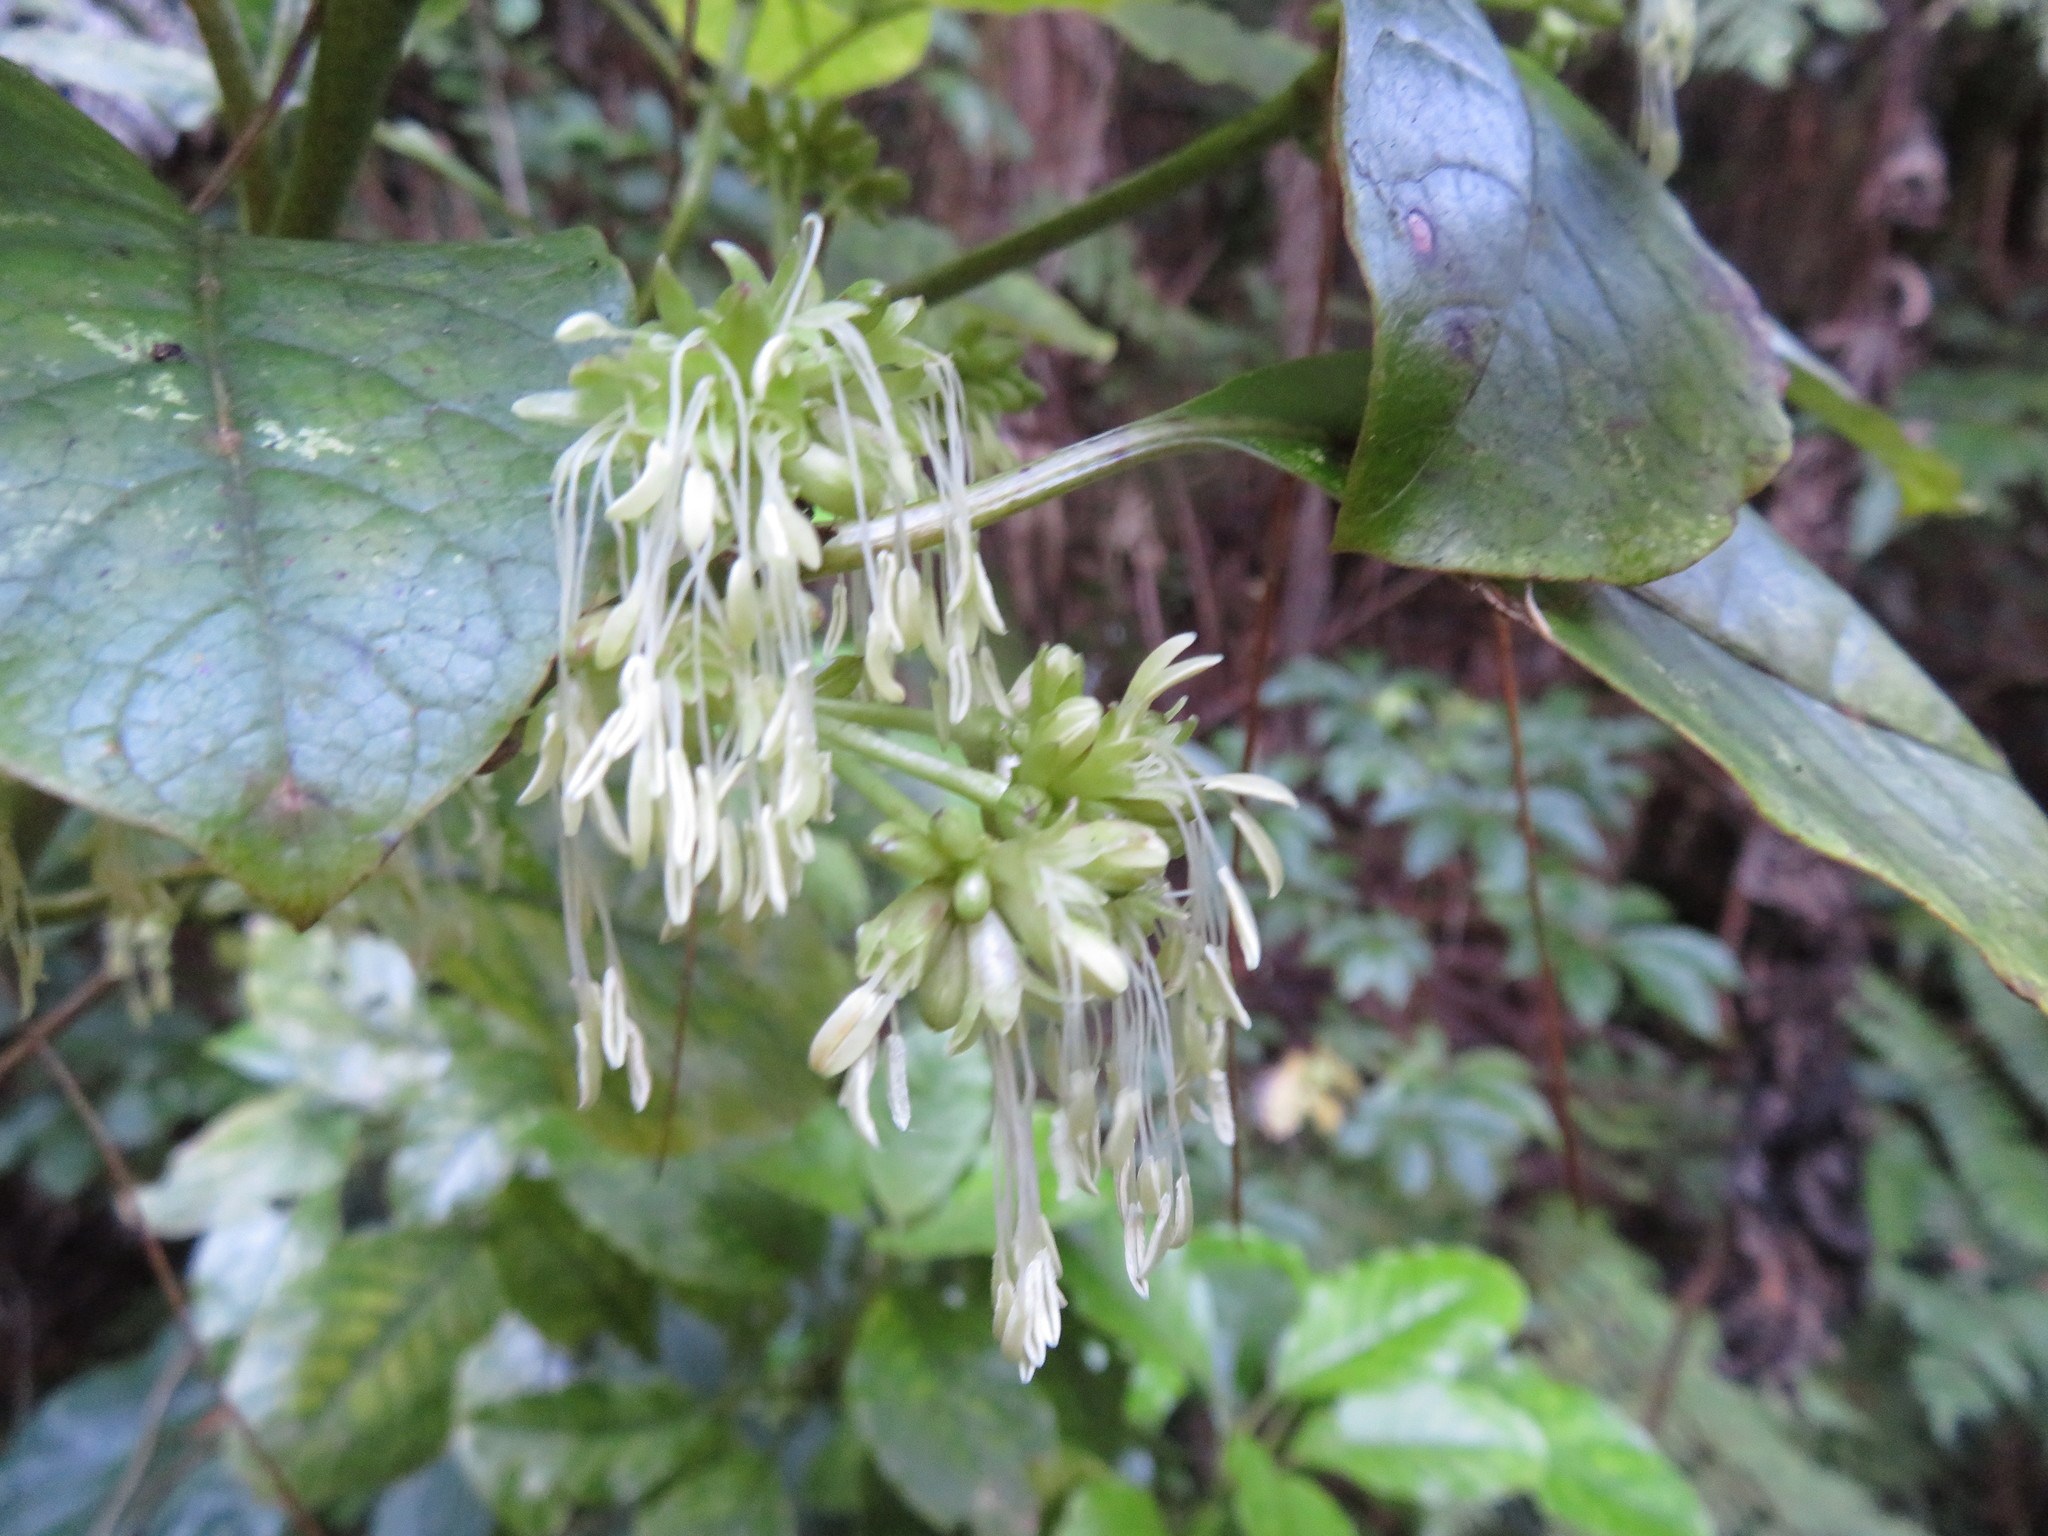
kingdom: Plantae
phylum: Tracheophyta
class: Magnoliopsida
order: Gentianales
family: Rubiaceae
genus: Coprosma
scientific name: Coprosma autumnalis
